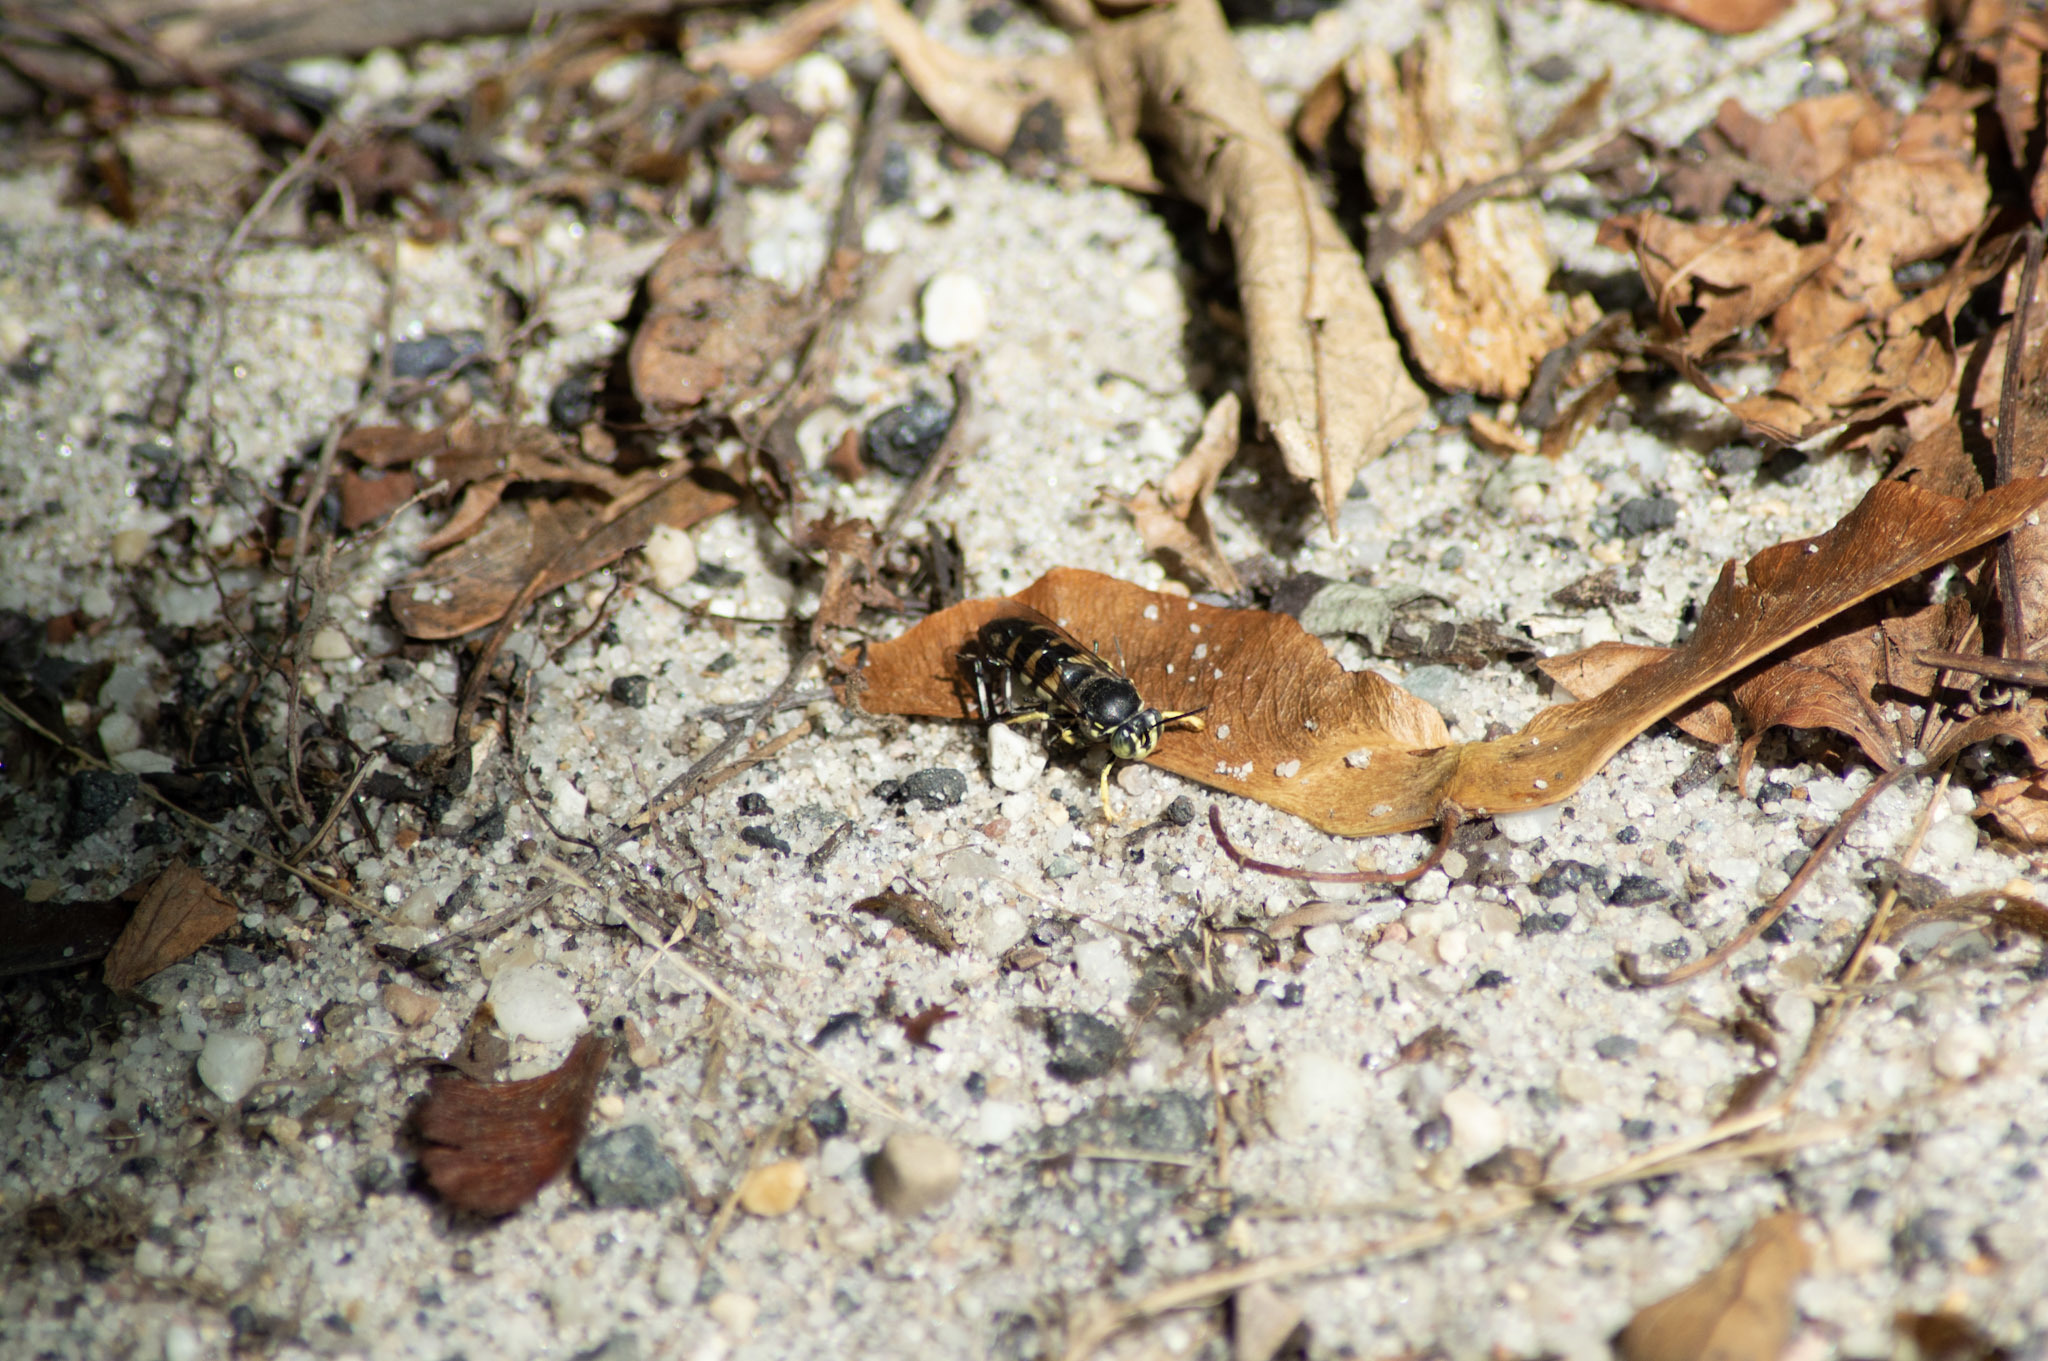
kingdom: Animalia
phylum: Arthropoda
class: Insecta
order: Hymenoptera
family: Crabronidae
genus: Bicyrtes
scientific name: Bicyrtes quadrifasciatus
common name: Four-banded stink bug hunter wasp
